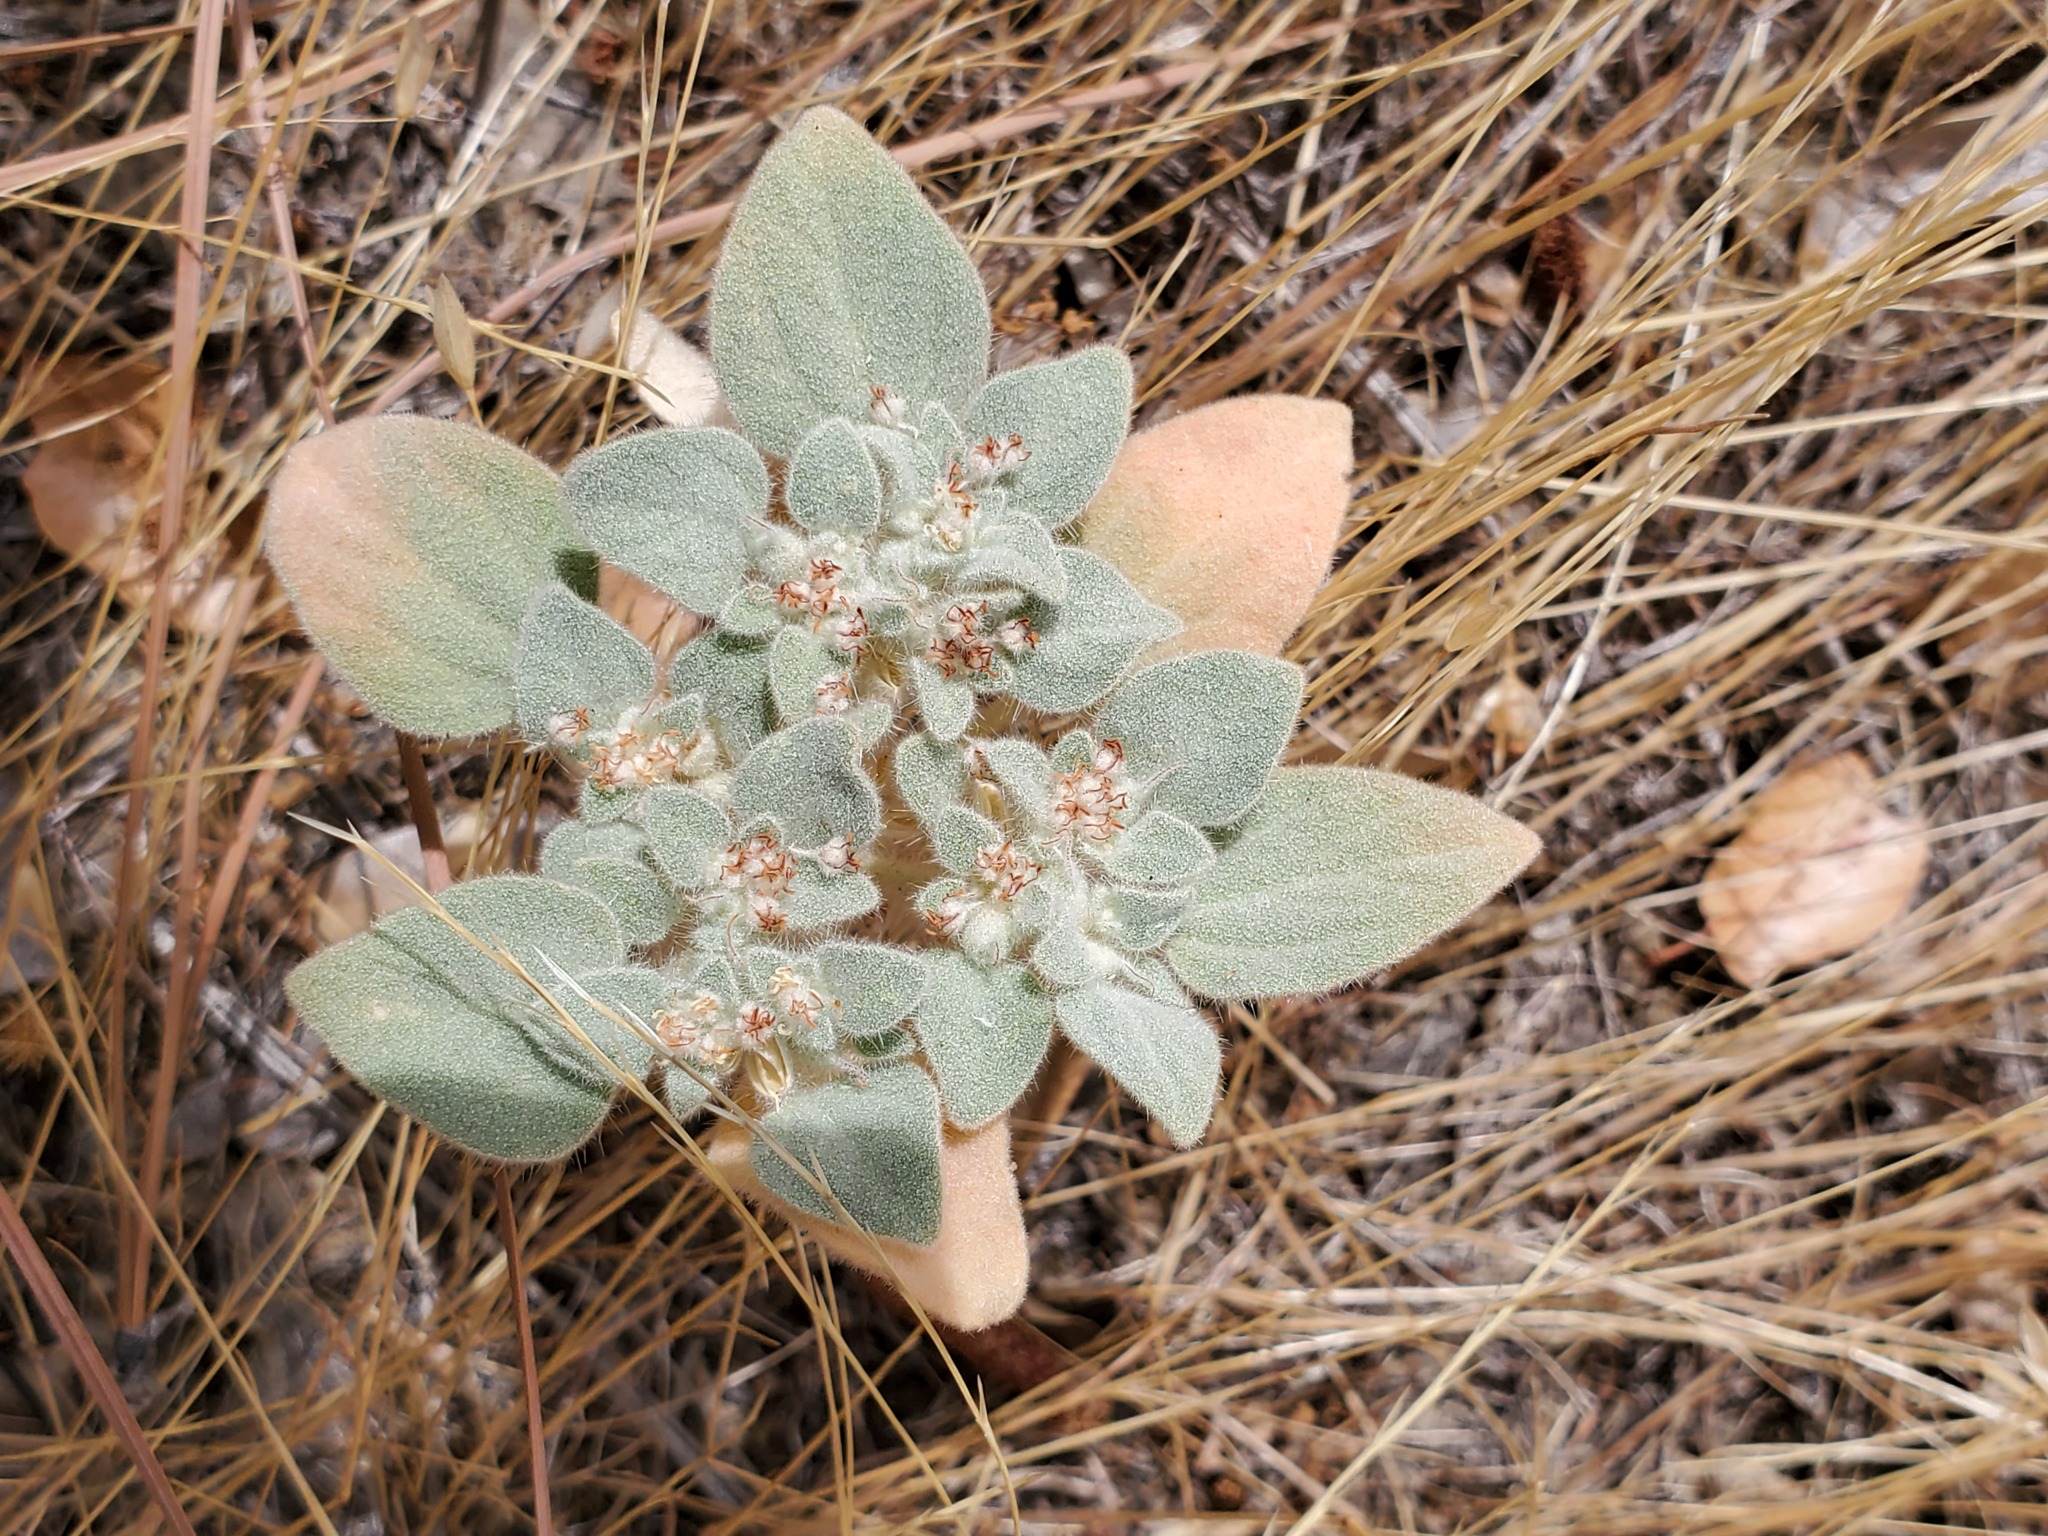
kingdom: Plantae
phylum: Tracheophyta
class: Magnoliopsida
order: Malpighiales
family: Euphorbiaceae
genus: Croton
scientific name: Croton setiger
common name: Dove weed
